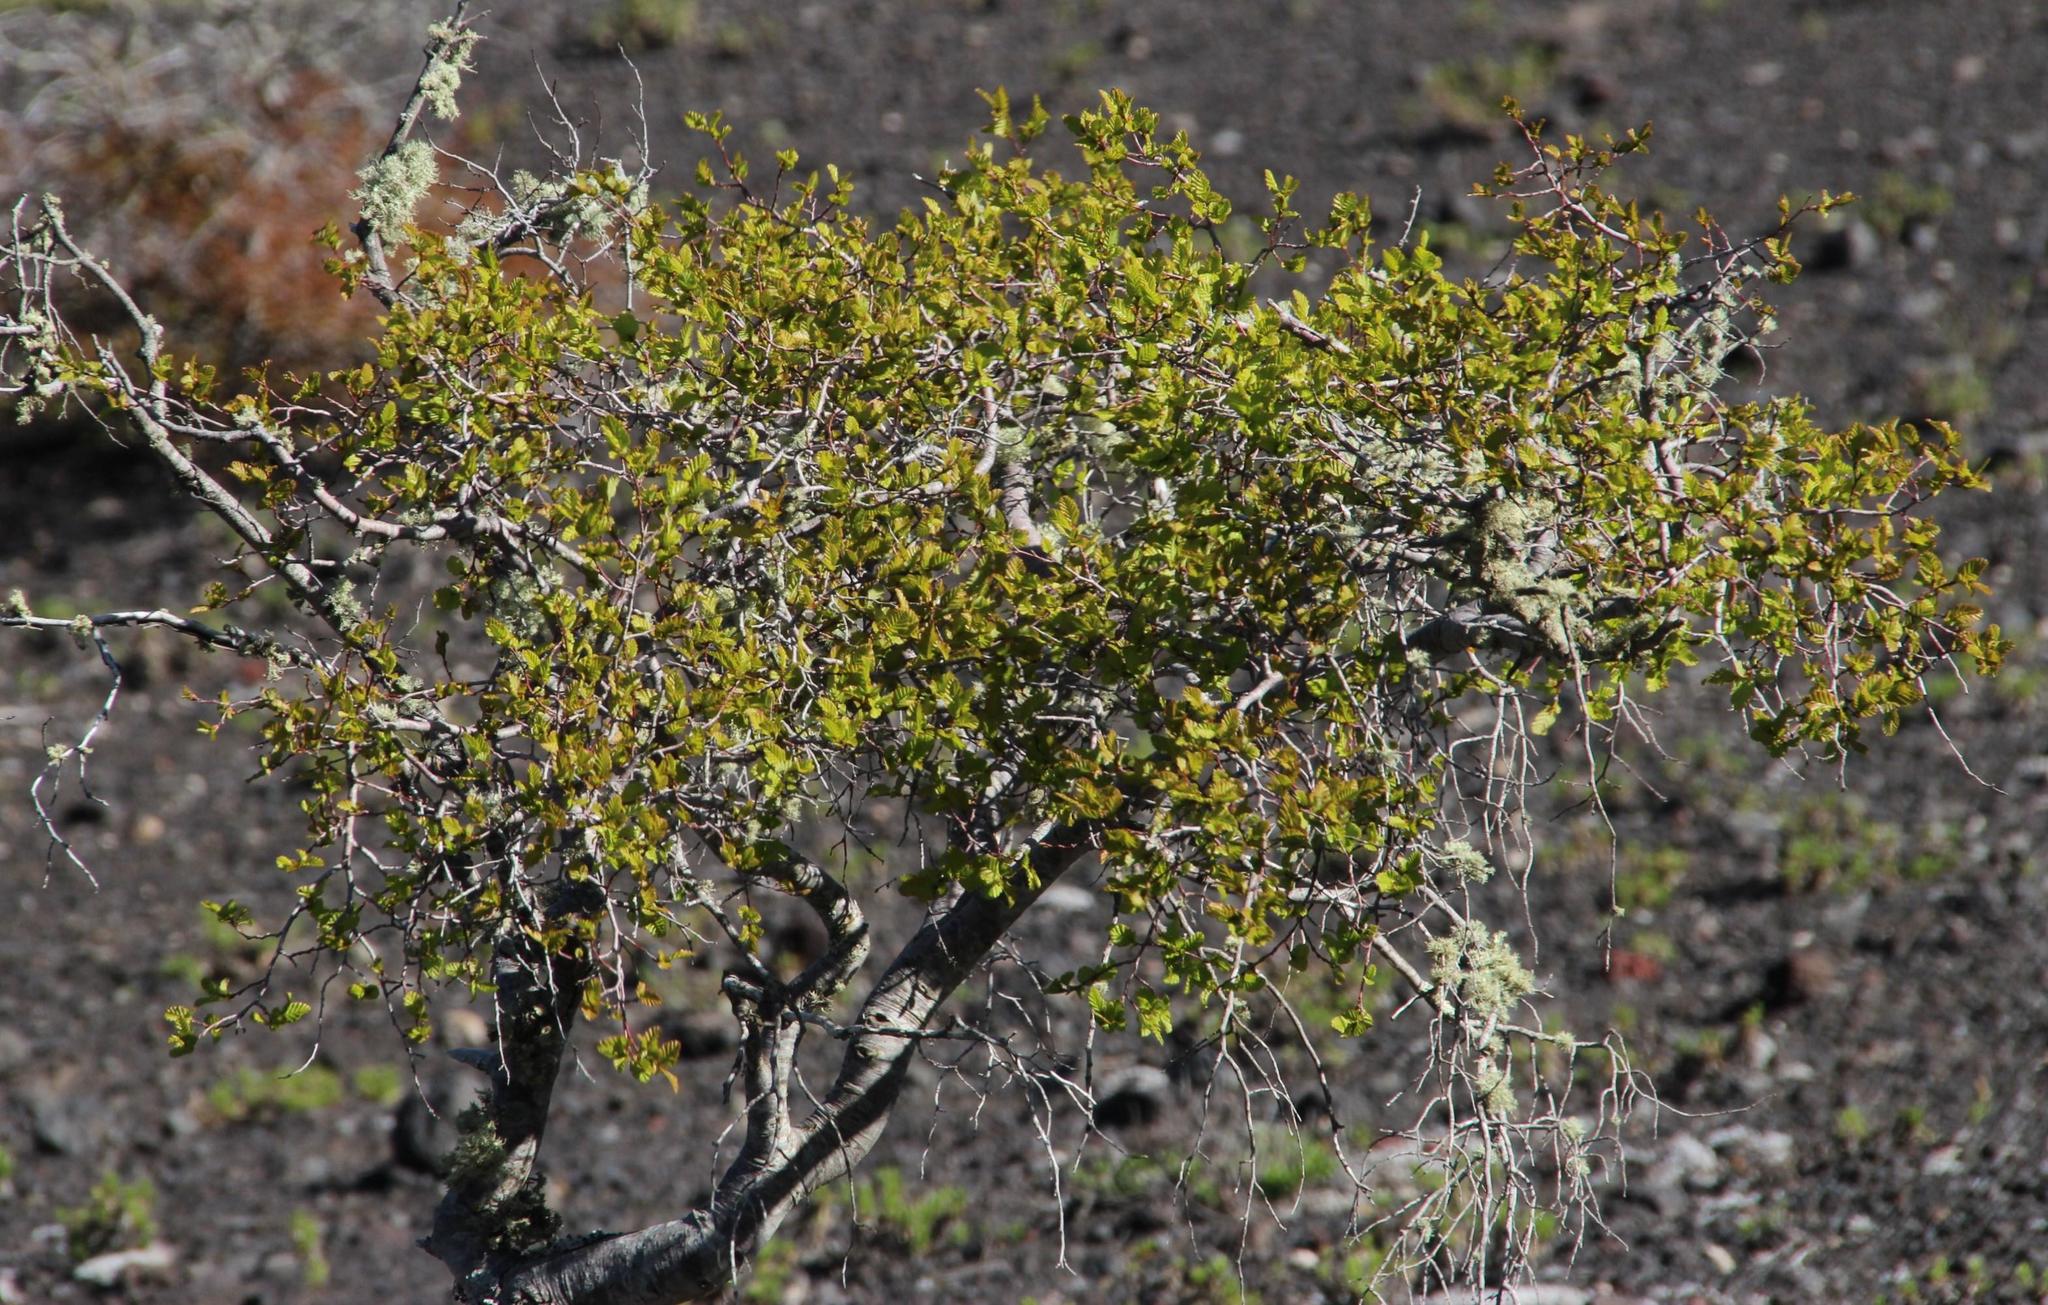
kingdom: Plantae
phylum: Tracheophyta
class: Magnoliopsida
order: Fagales
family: Nothofagaceae
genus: Nothofagus
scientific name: Nothofagus obliqua
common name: Roble beech
